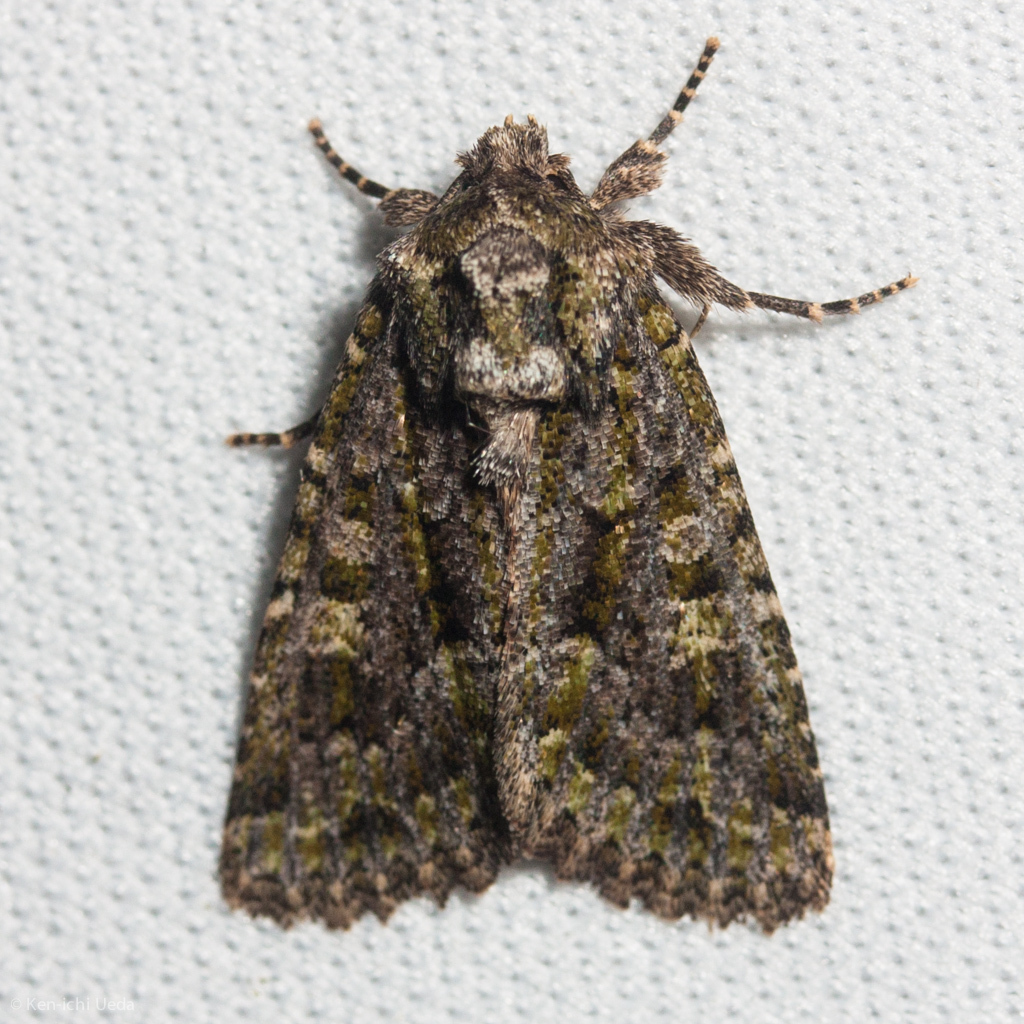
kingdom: Animalia
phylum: Arthropoda
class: Insecta
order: Lepidoptera
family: Noctuidae
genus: Aseptis
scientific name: Aseptis marina
